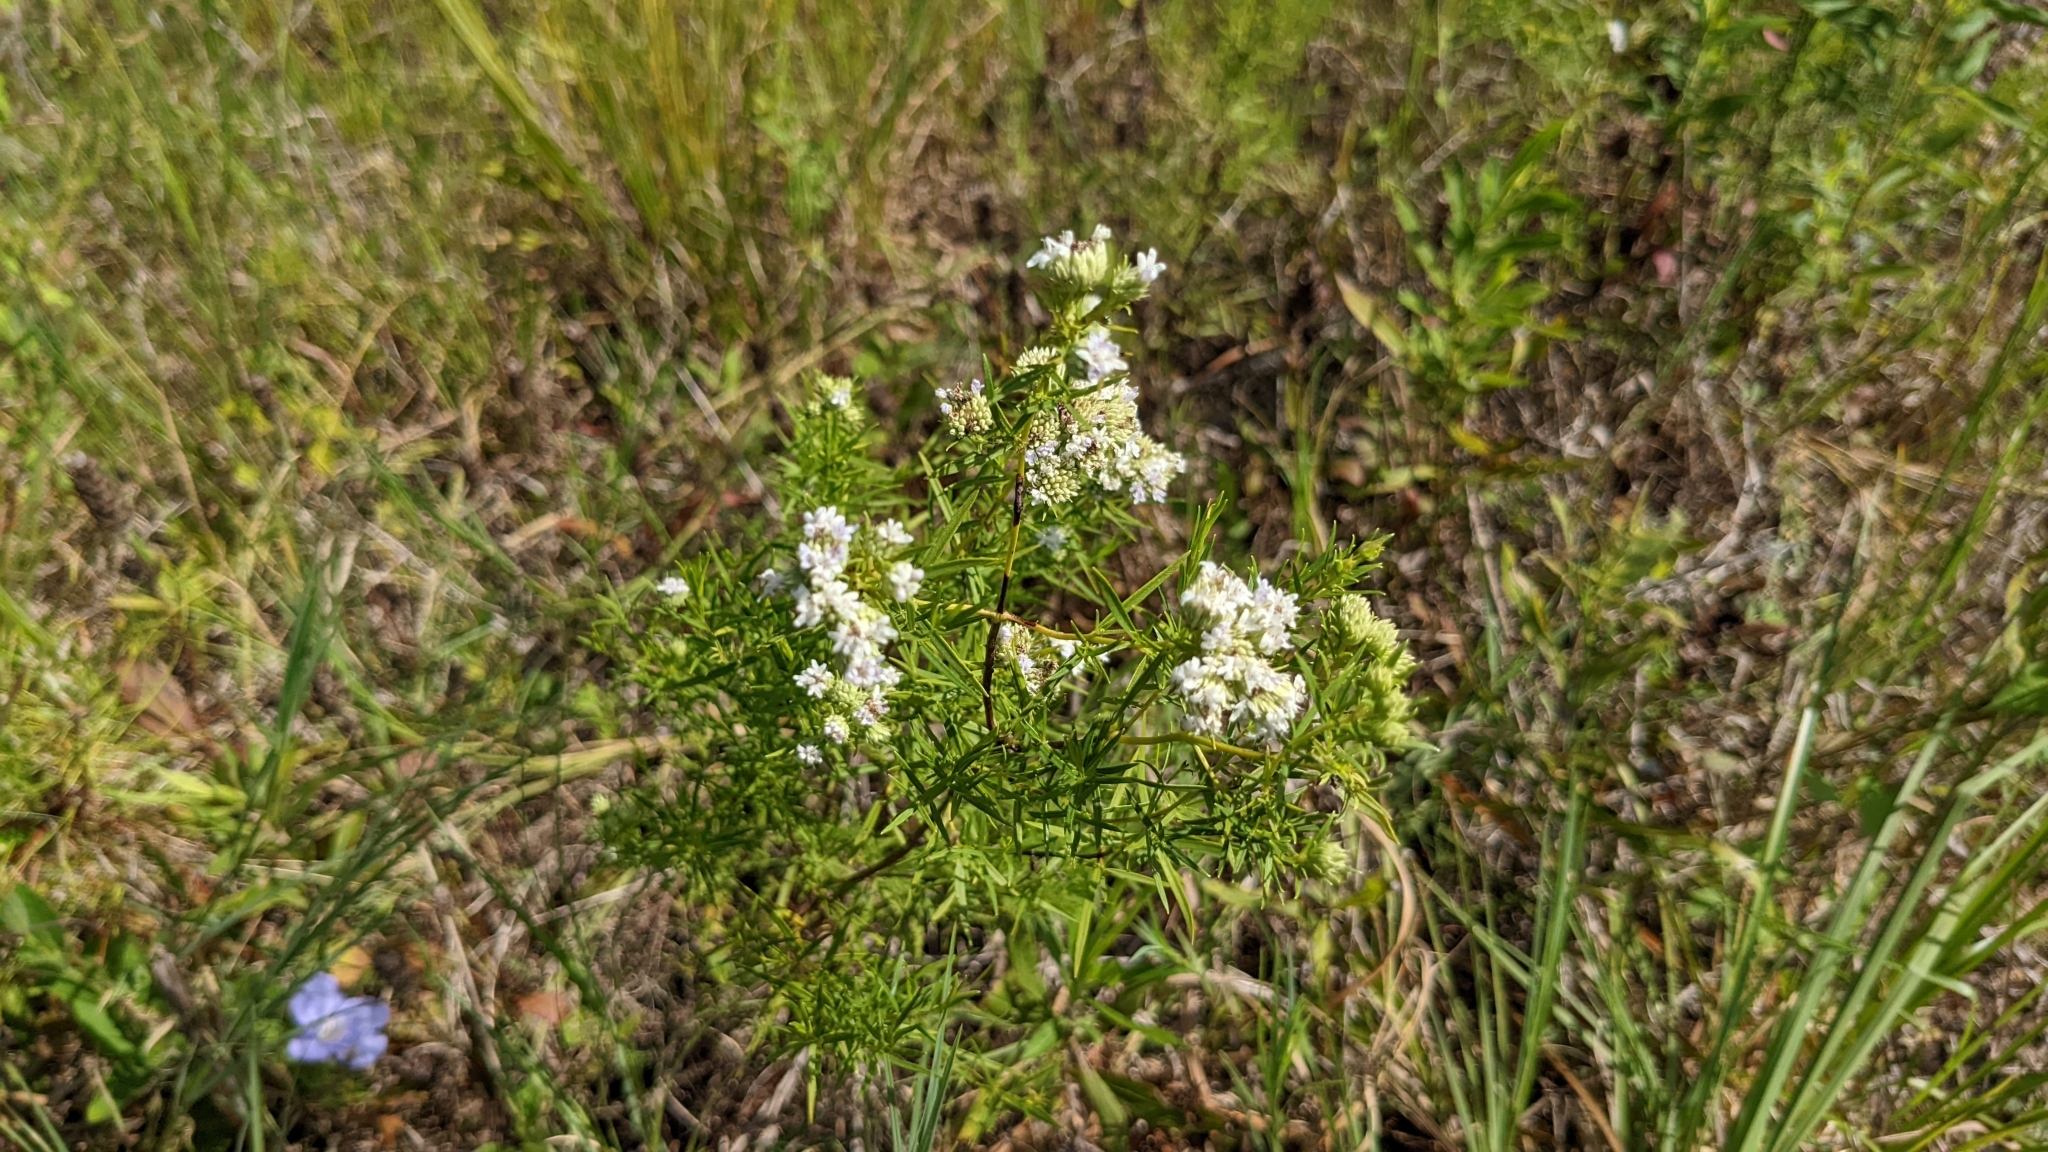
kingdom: Plantae
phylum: Tracheophyta
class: Magnoliopsida
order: Lamiales
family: Lamiaceae
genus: Pycnanthemum
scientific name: Pycnanthemum tenuifolium
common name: Narrow-leaf mountain-mint
